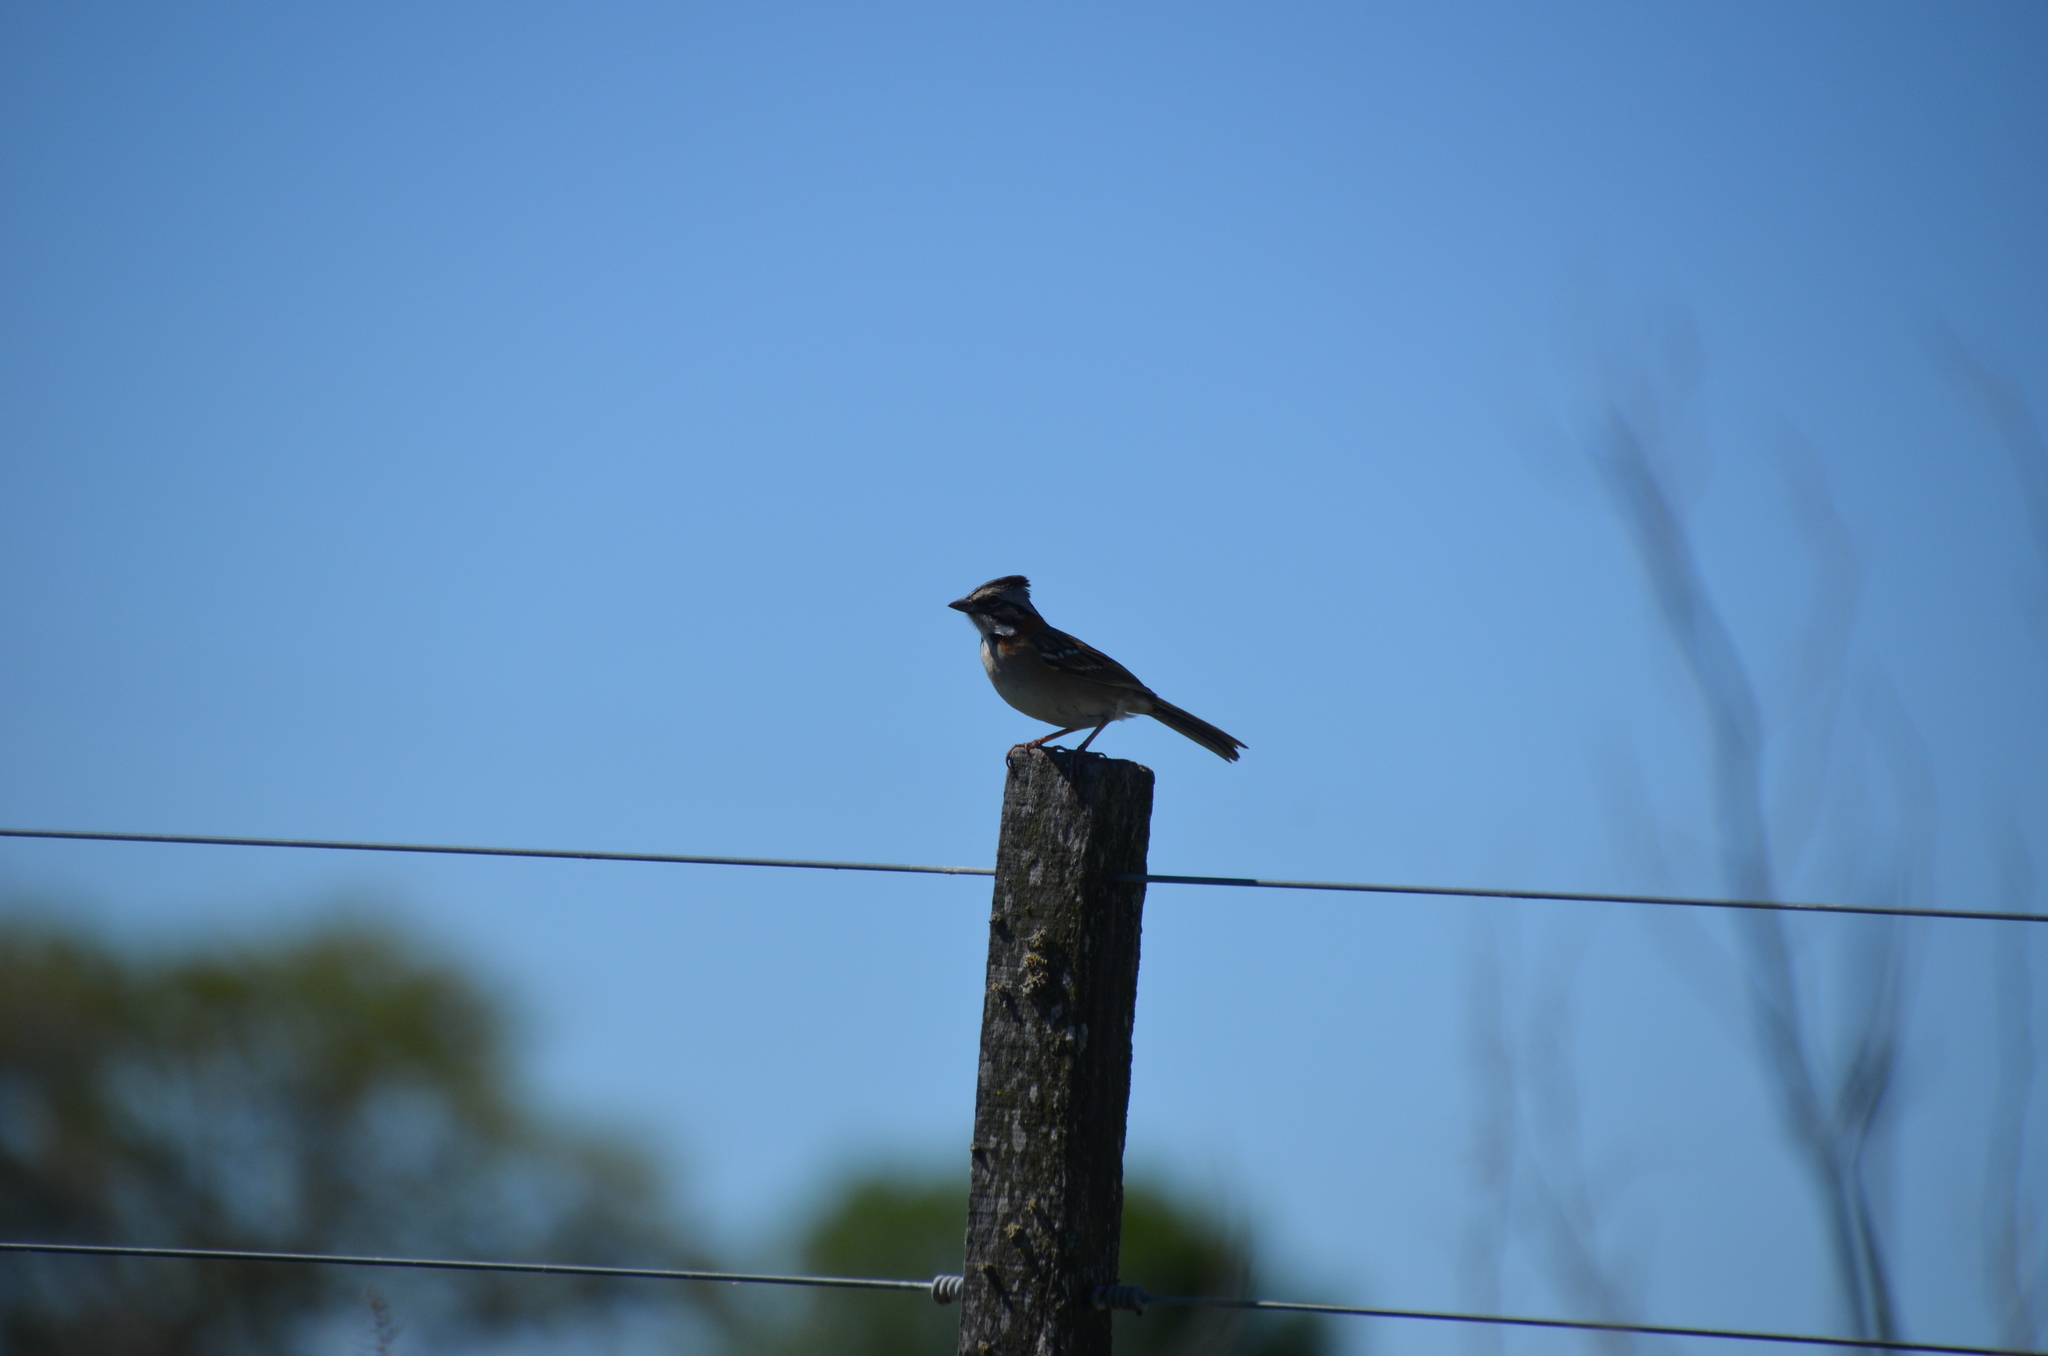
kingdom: Animalia
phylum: Chordata
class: Aves
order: Passeriformes
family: Passerellidae
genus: Zonotrichia
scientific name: Zonotrichia capensis
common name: Rufous-collared sparrow
